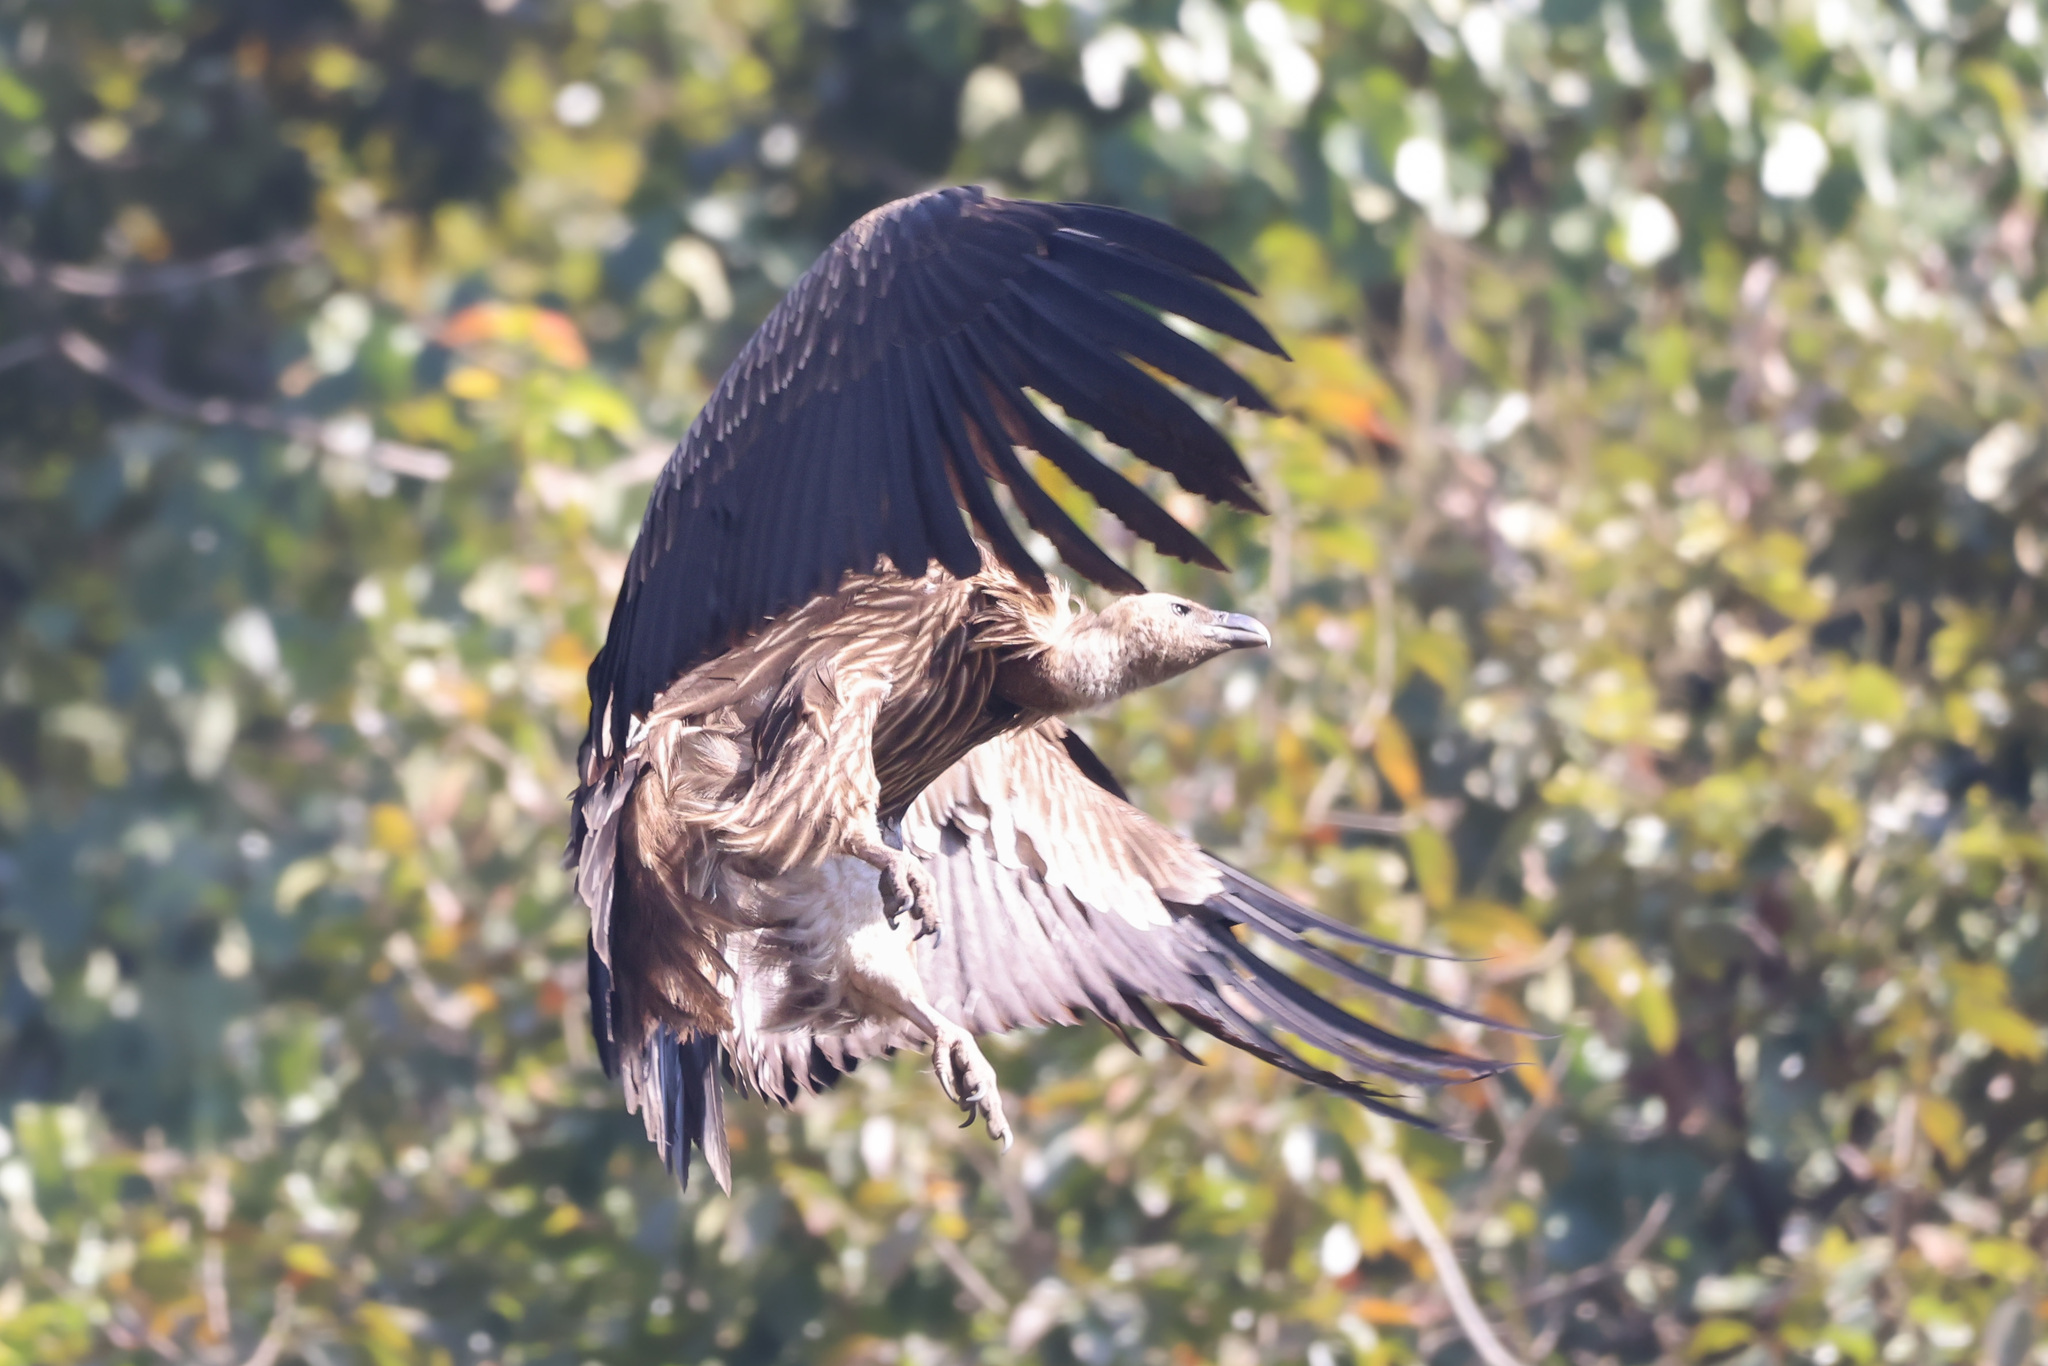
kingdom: Animalia
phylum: Chordata
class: Aves
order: Accipitriformes
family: Accipitridae
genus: Gyps
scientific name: Gyps himalayensis
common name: Himalayan griffon
